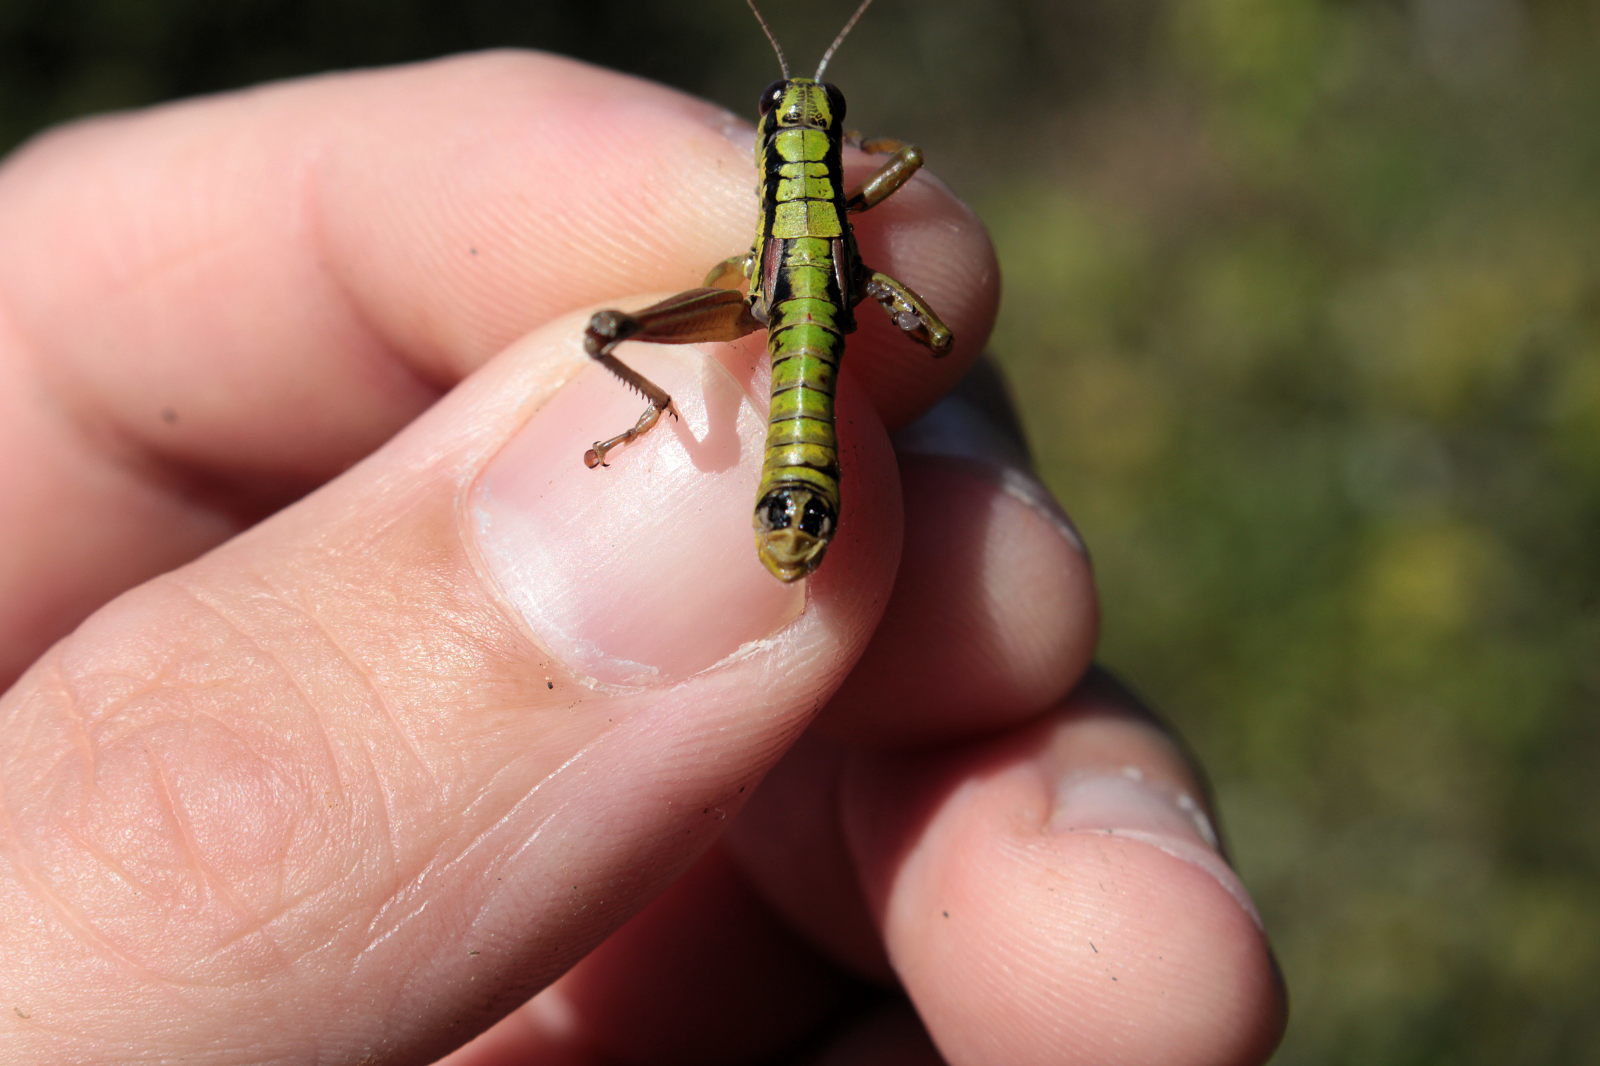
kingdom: Animalia
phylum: Arthropoda
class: Insecta
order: Orthoptera
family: Acrididae
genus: Pseudopodisma
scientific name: Pseudopodisma nagyi
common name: Nagy's mountain grasshopper
